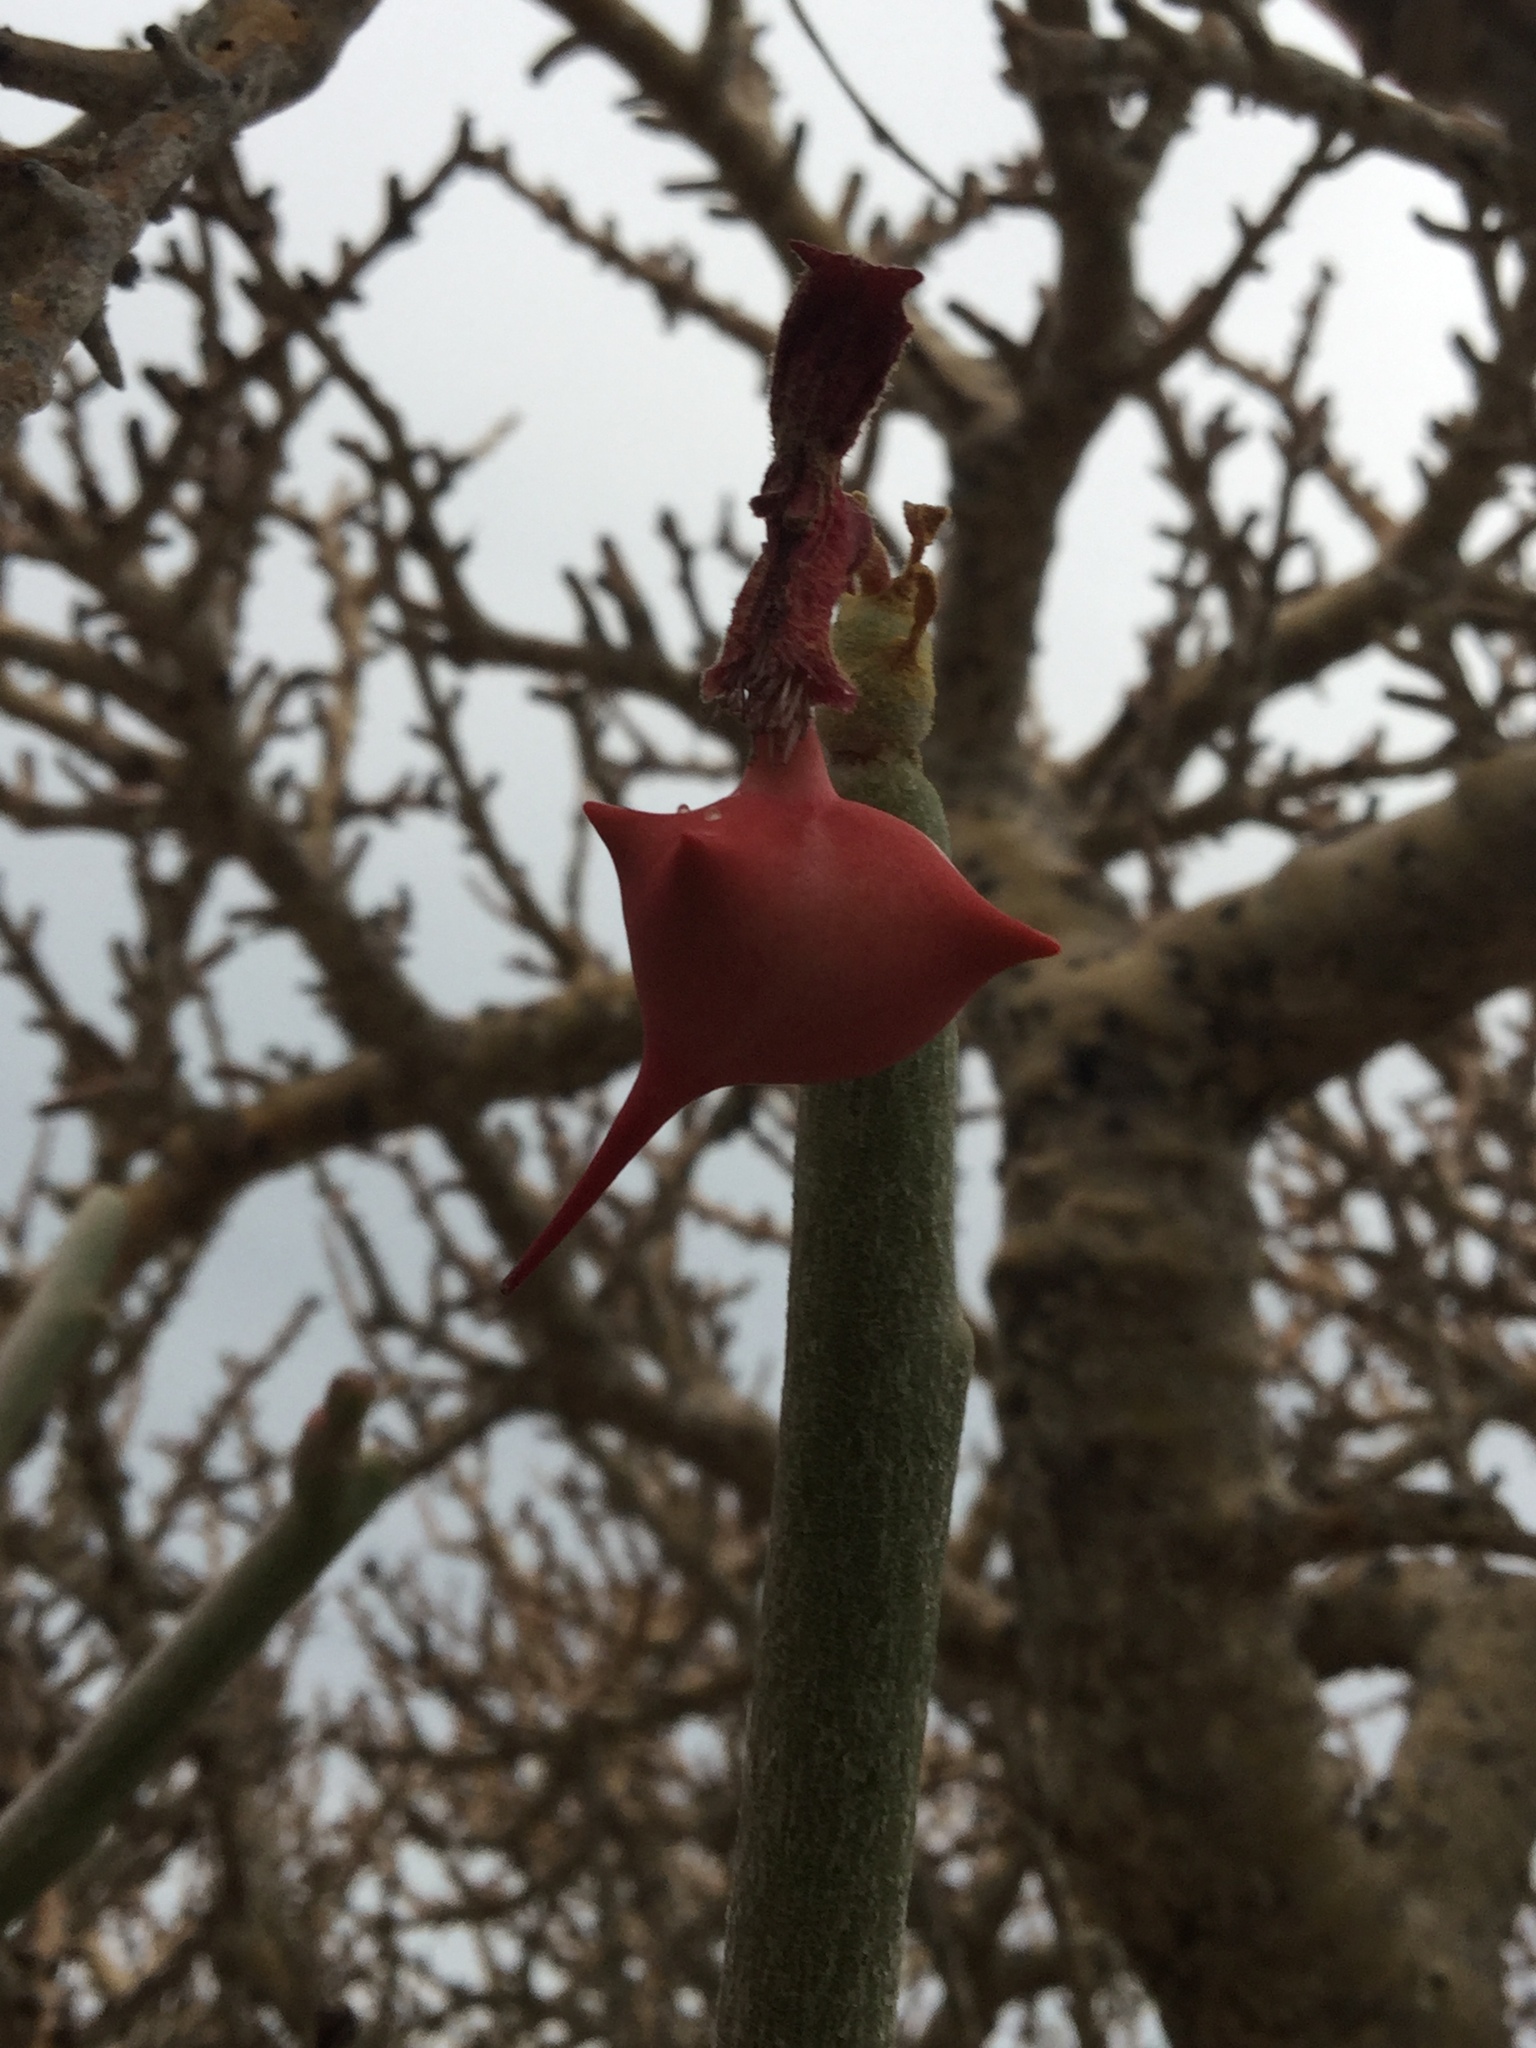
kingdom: Plantae
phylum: Tracheophyta
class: Magnoliopsida
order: Malpighiales
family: Euphorbiaceae
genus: Euphorbia
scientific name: Euphorbia lomelii
